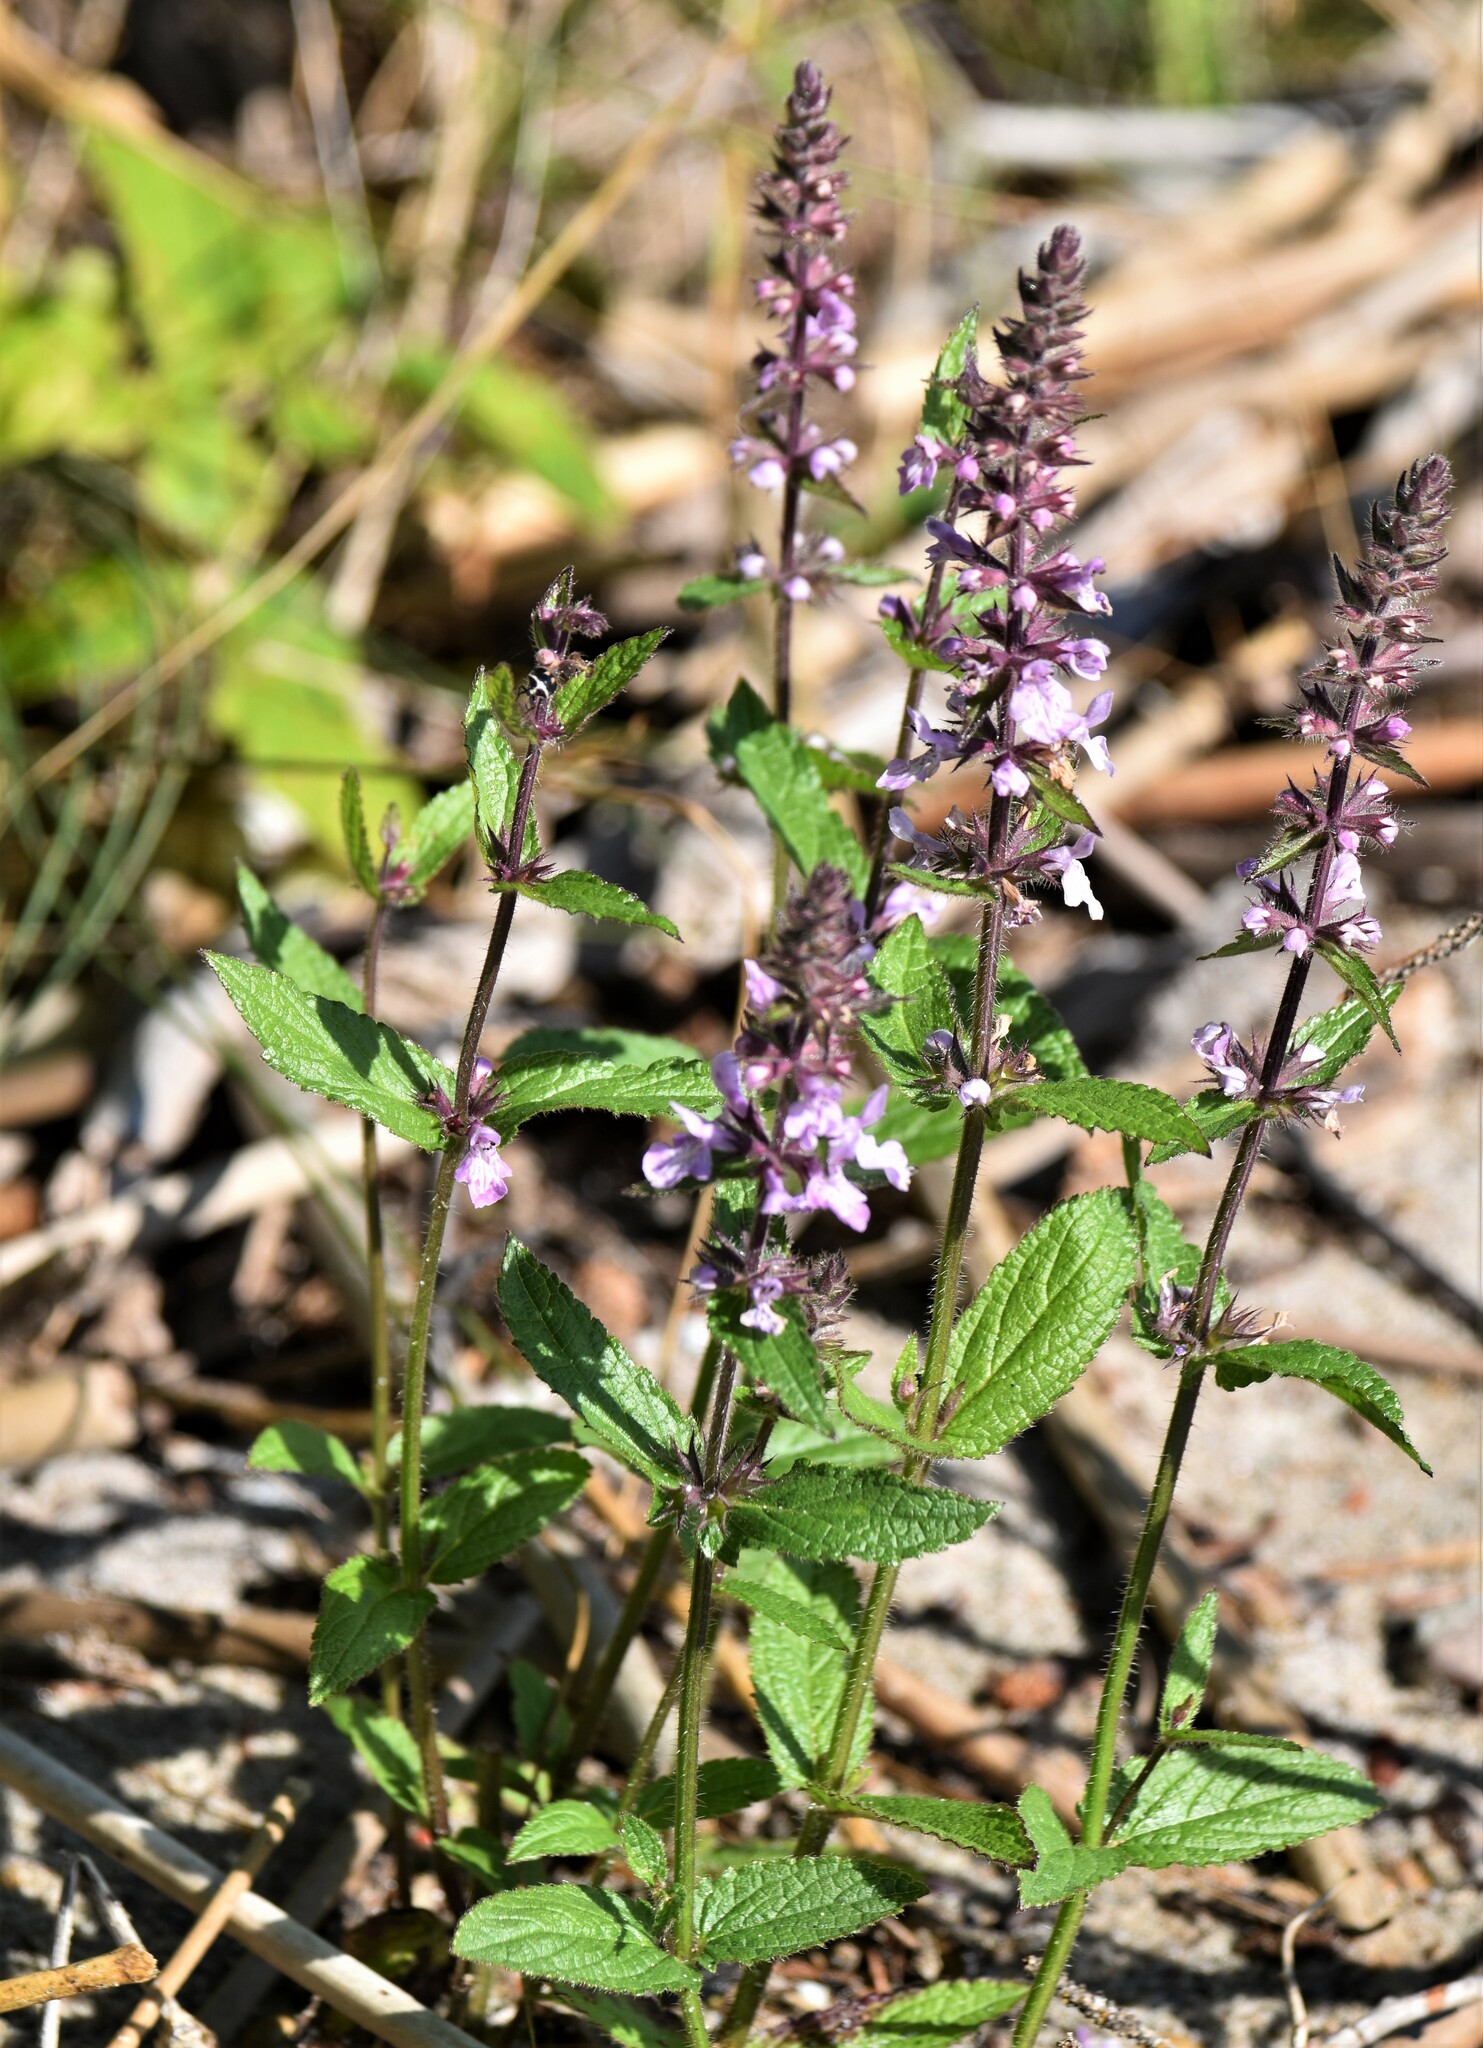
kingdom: Plantae
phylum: Tracheophyta
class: Magnoliopsida
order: Lamiales
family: Lamiaceae
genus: Stachys
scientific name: Stachys pilosa
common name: Hairy hedge-nettle
